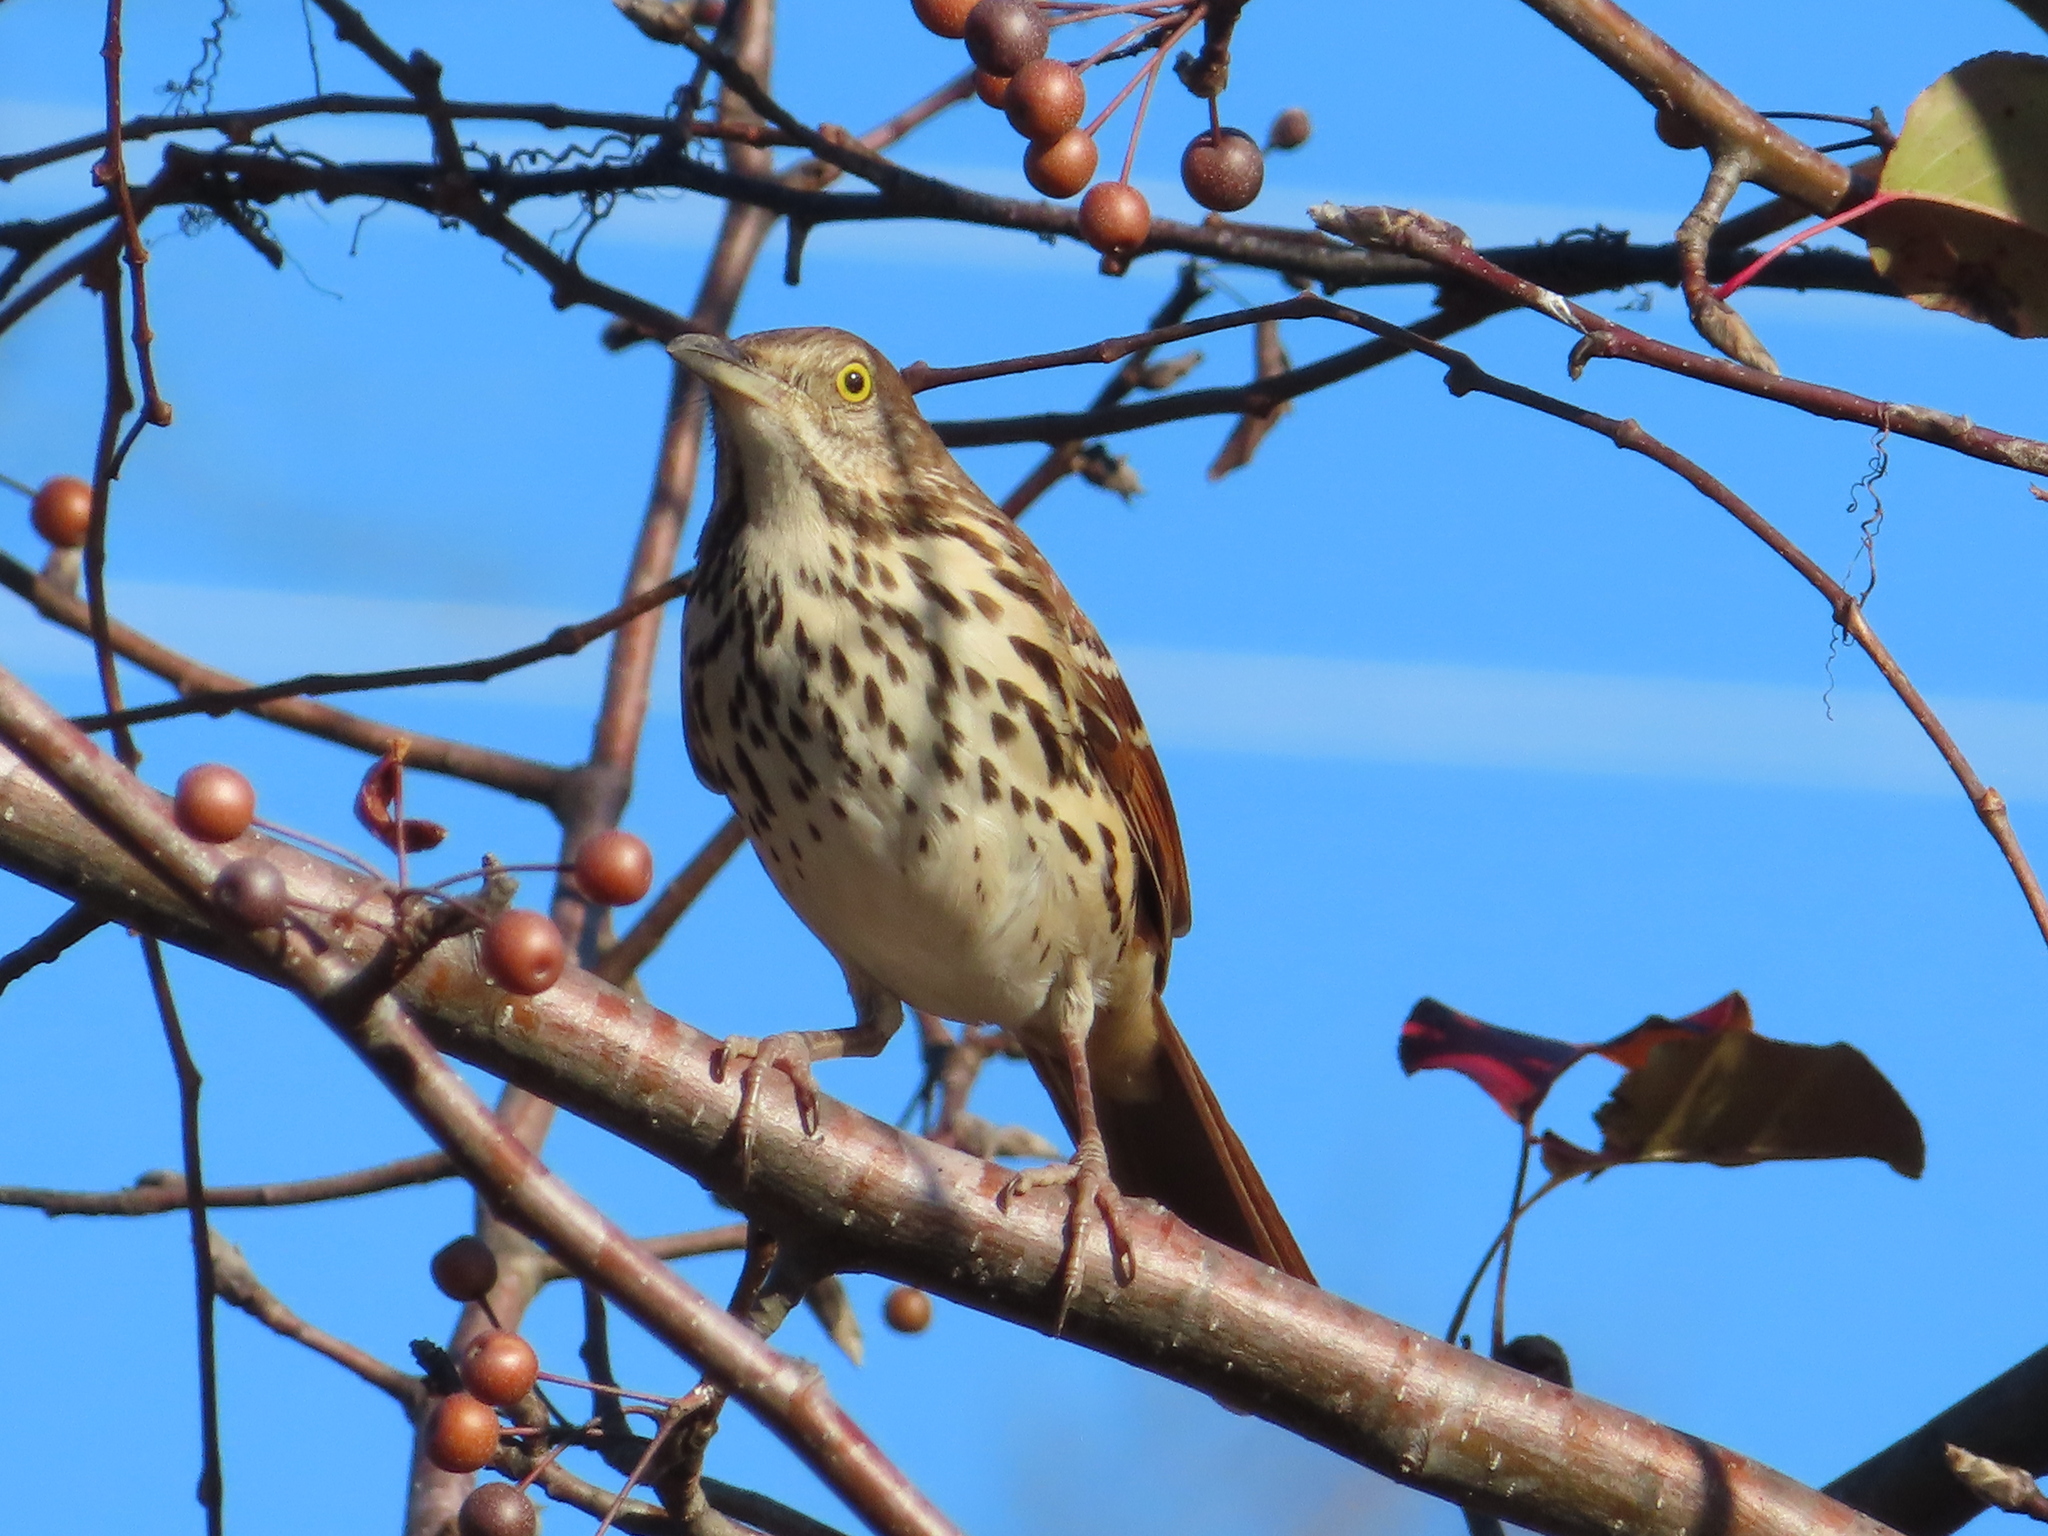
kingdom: Animalia
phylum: Chordata
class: Aves
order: Passeriformes
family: Mimidae
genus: Toxostoma
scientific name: Toxostoma rufum
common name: Brown thrasher
